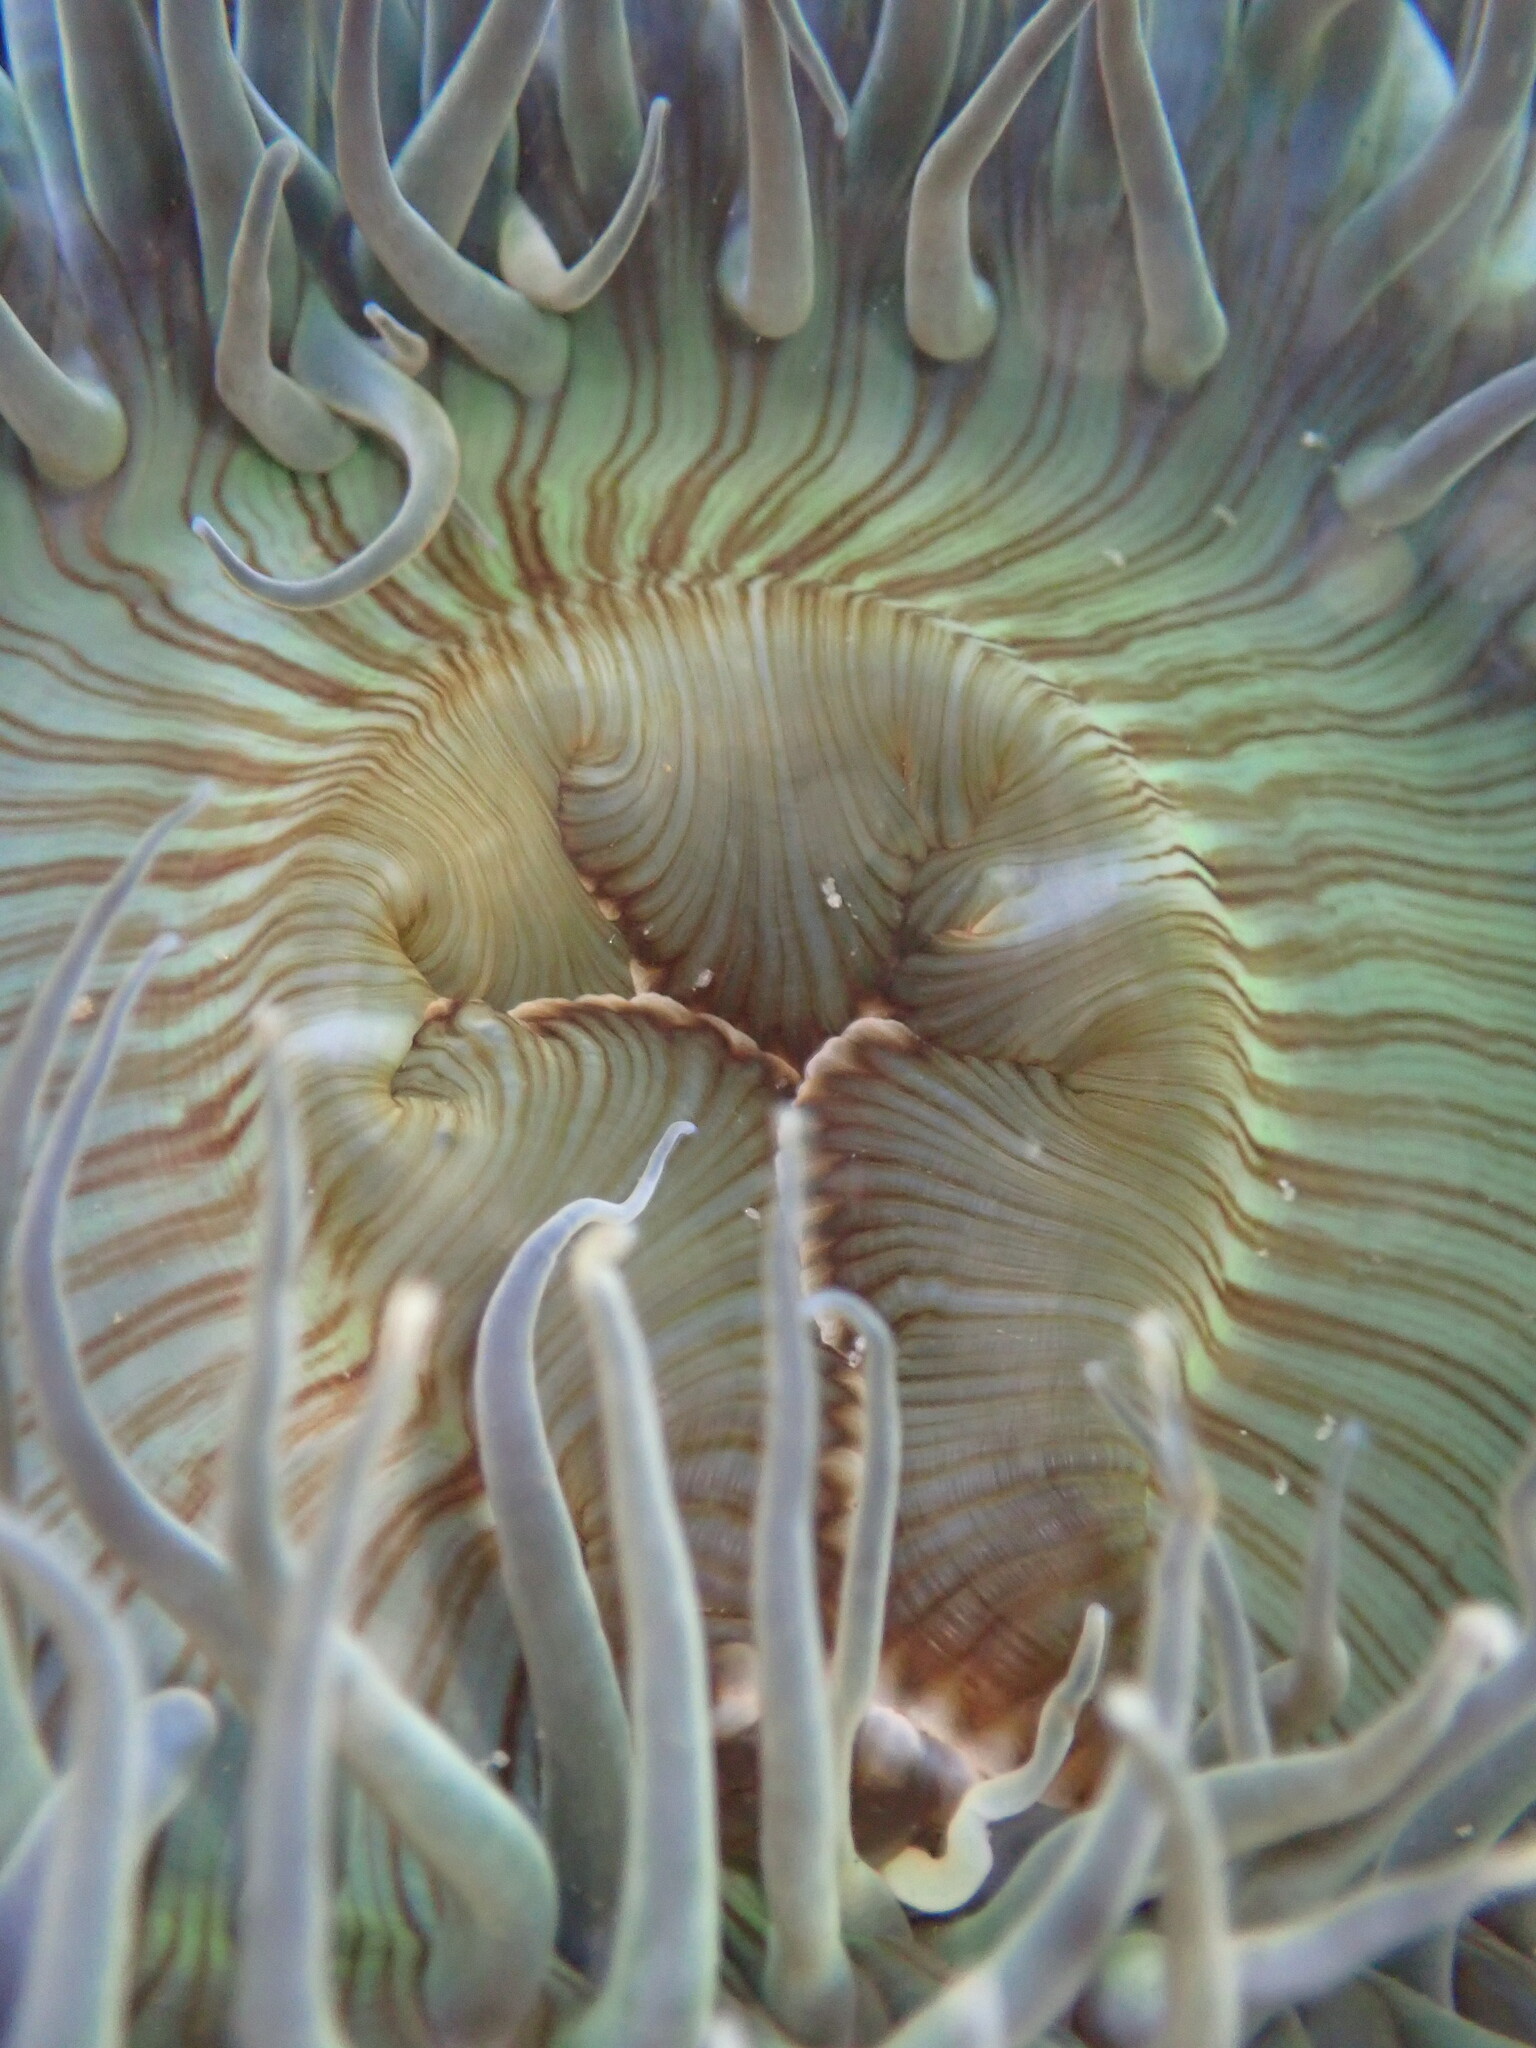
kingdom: Animalia
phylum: Cnidaria
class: Anthozoa
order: Actiniaria
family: Actiniidae
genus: Anthopleura
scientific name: Anthopleura sola
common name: Sun anemone
